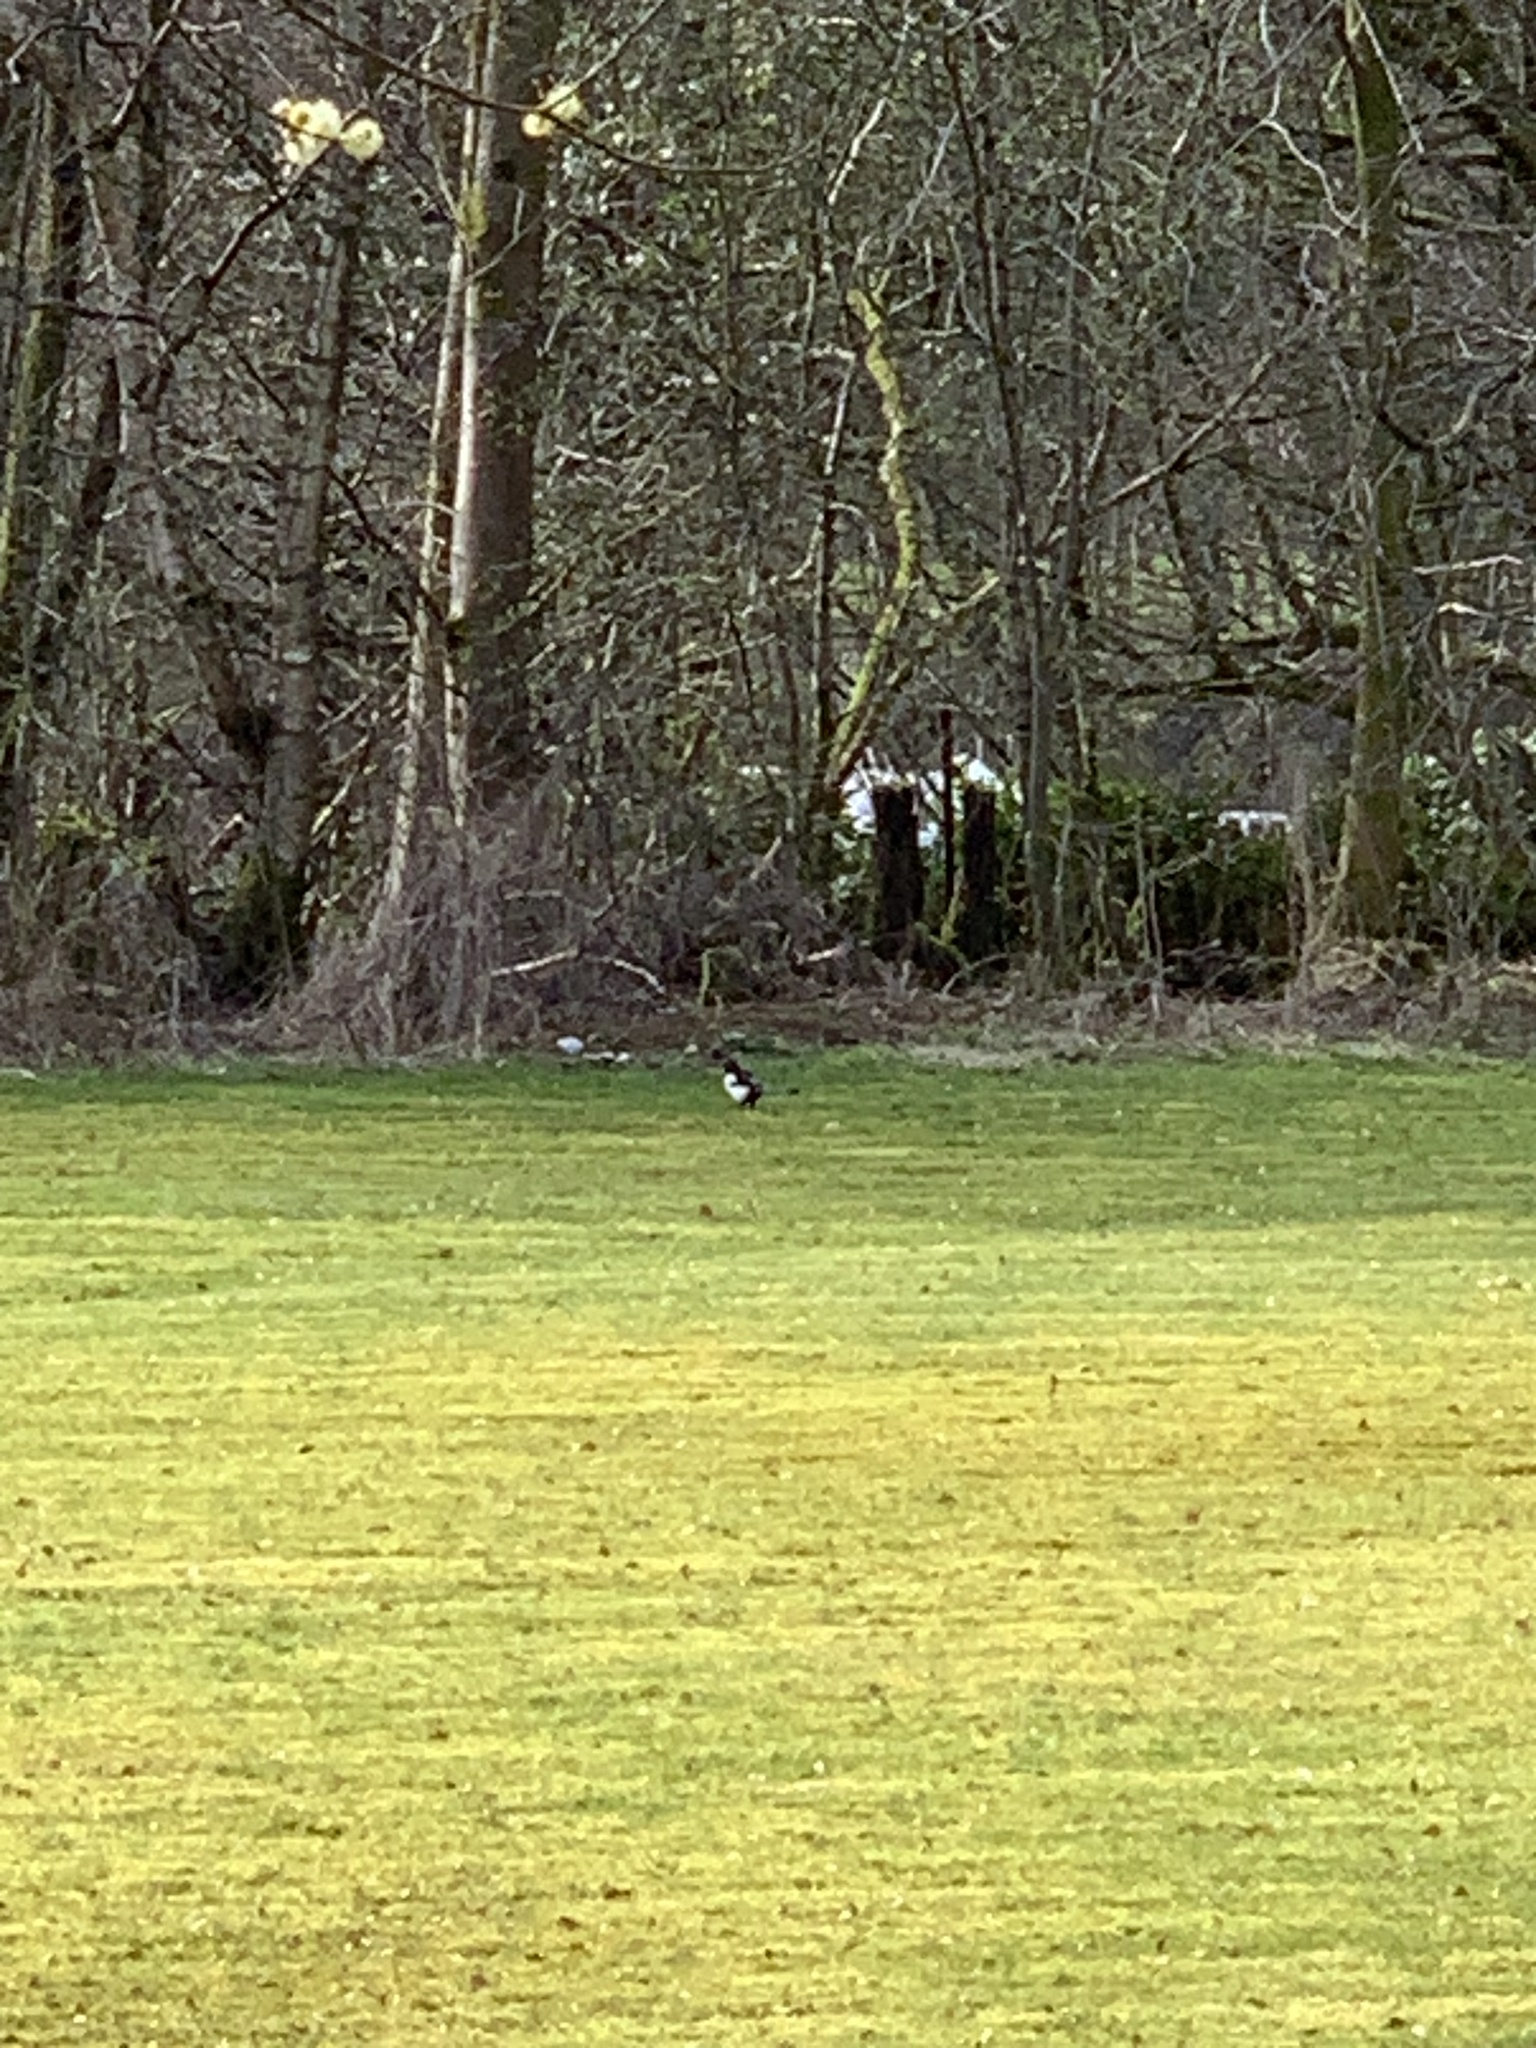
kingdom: Animalia
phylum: Chordata
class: Aves
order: Passeriformes
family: Corvidae
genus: Pica
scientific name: Pica pica
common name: Eurasian magpie
